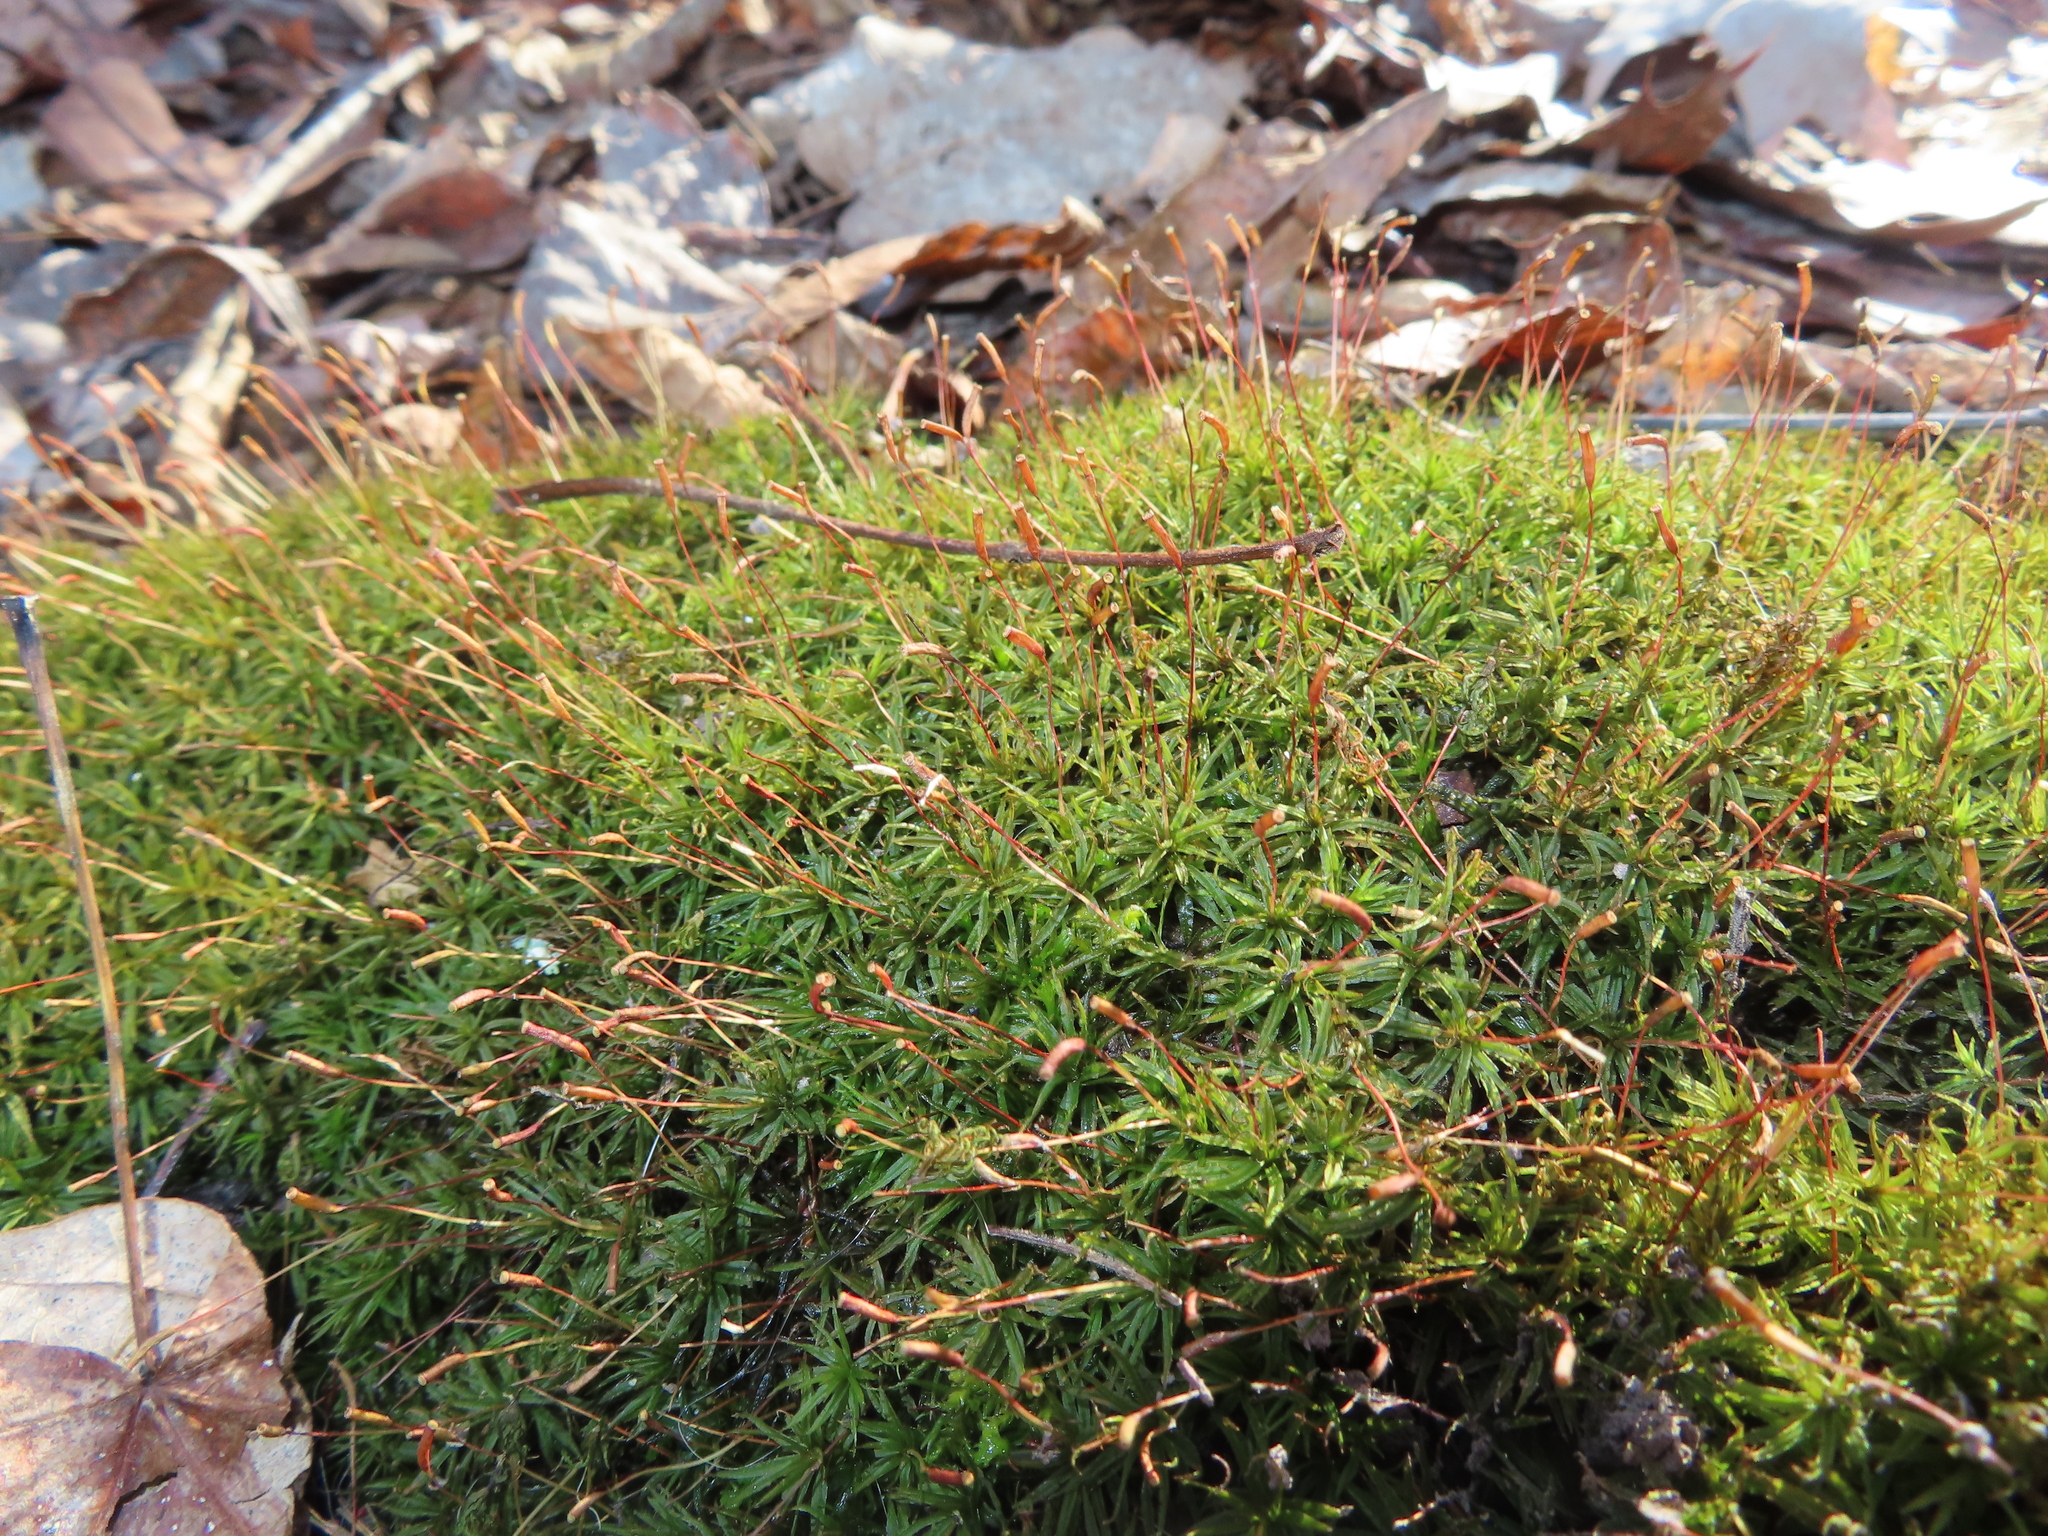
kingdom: Plantae
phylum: Bryophyta
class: Polytrichopsida
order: Polytrichales
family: Polytrichaceae
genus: Atrichum
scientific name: Atrichum
